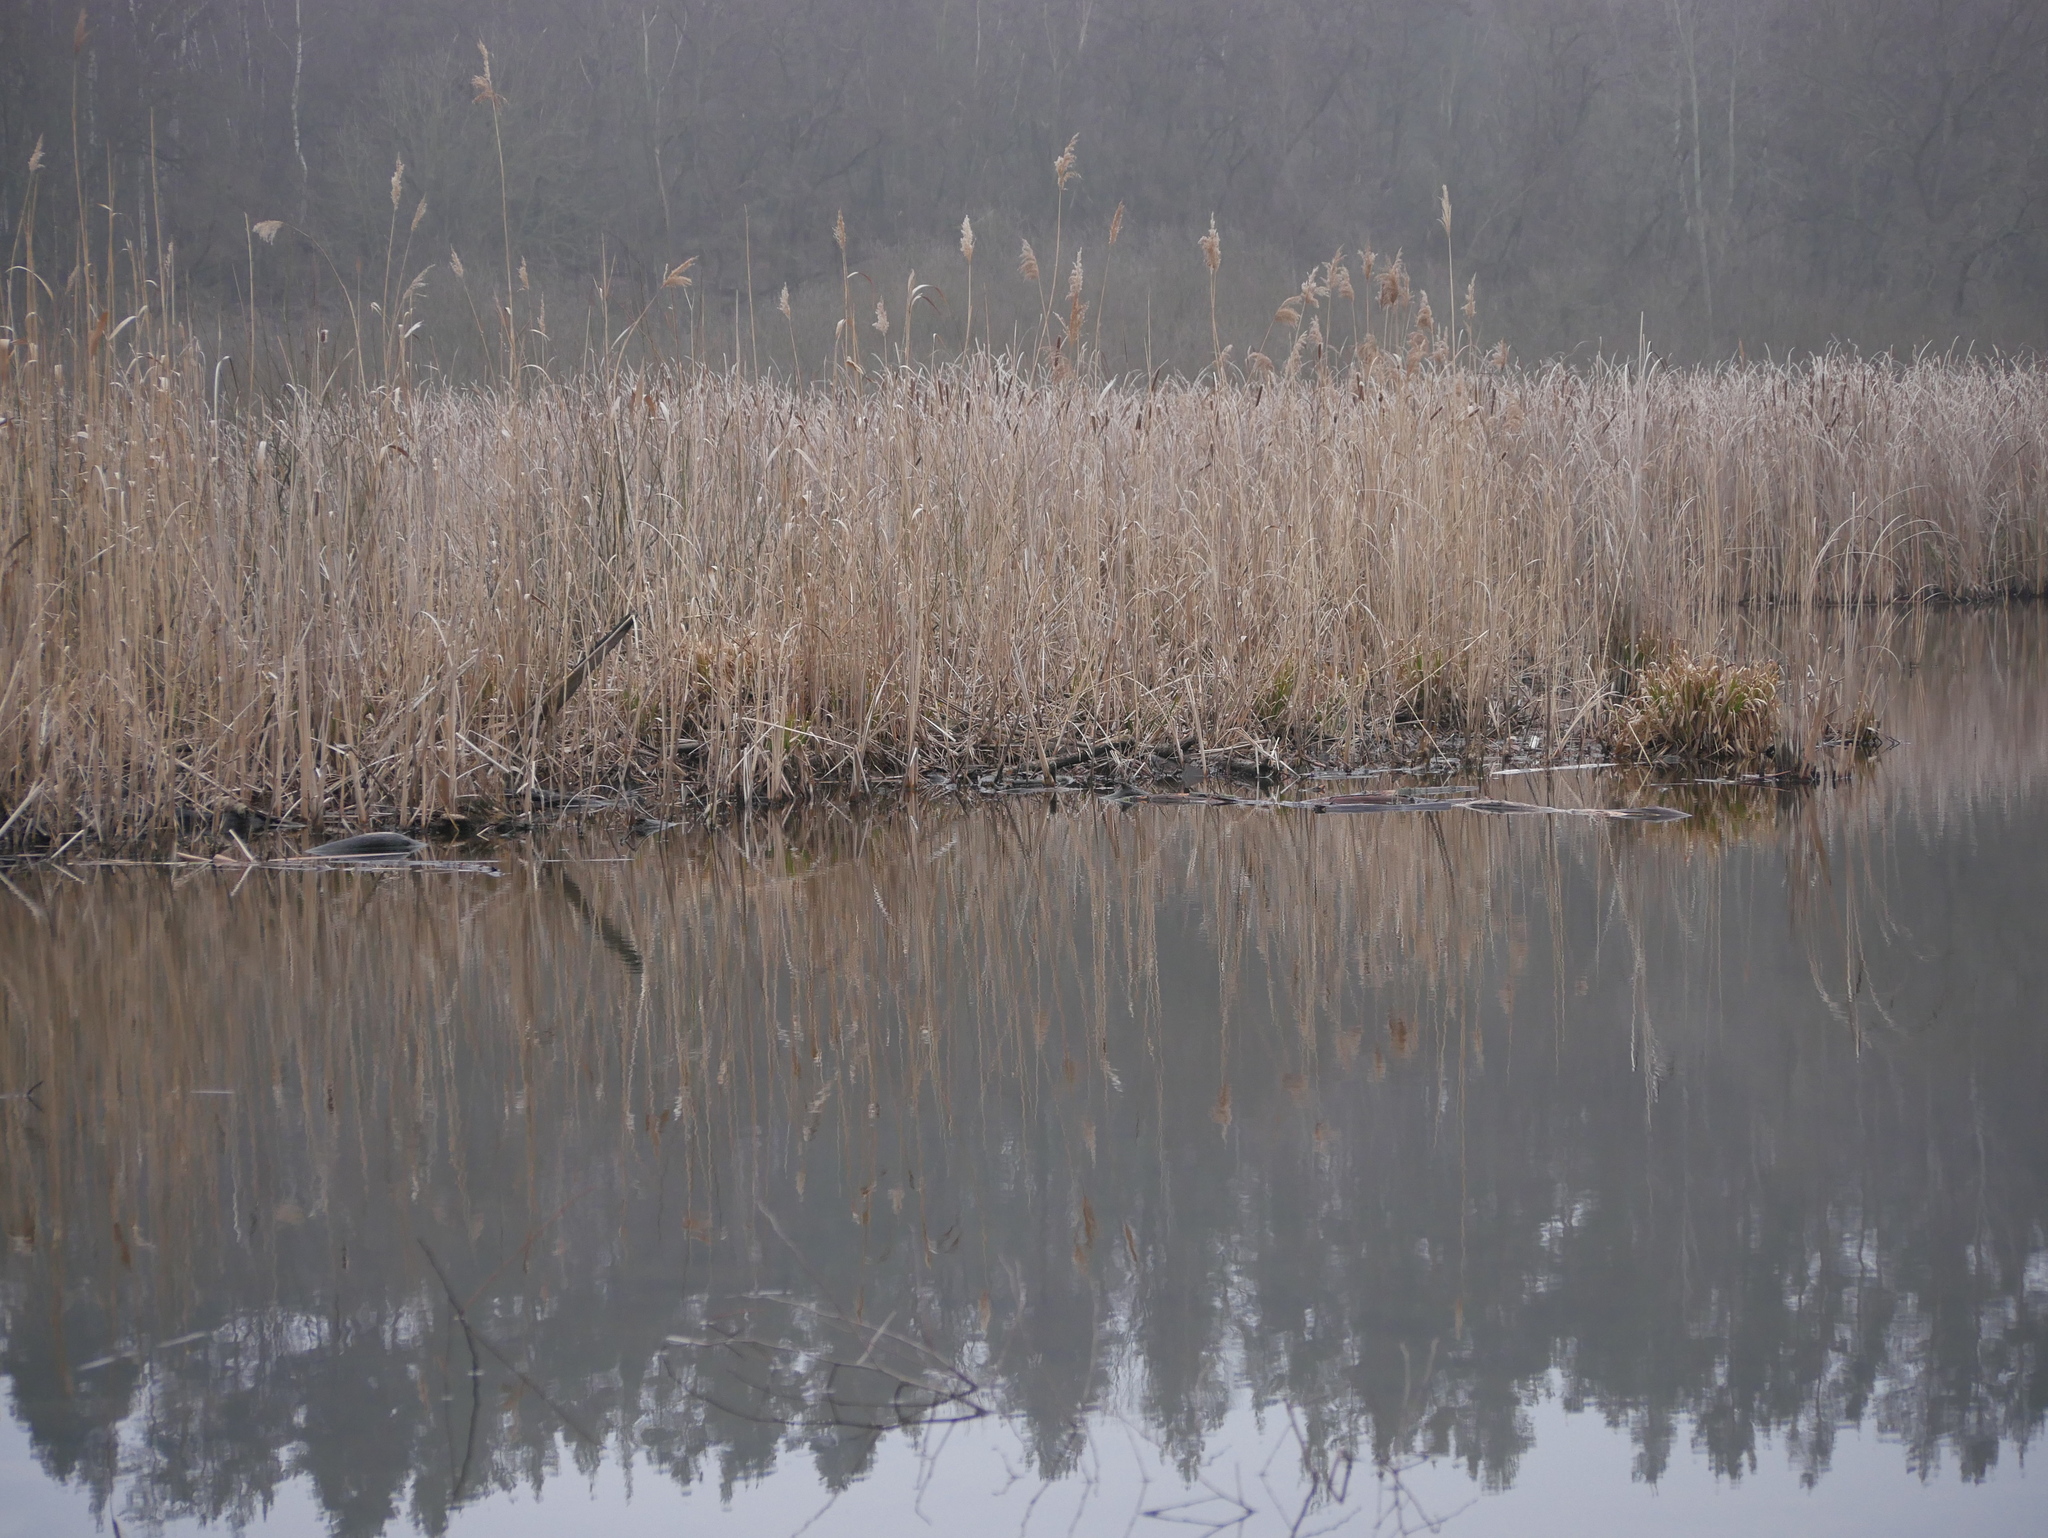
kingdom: Plantae
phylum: Tracheophyta
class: Liliopsida
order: Poales
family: Poaceae
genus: Phragmites
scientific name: Phragmites australis
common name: Common reed
